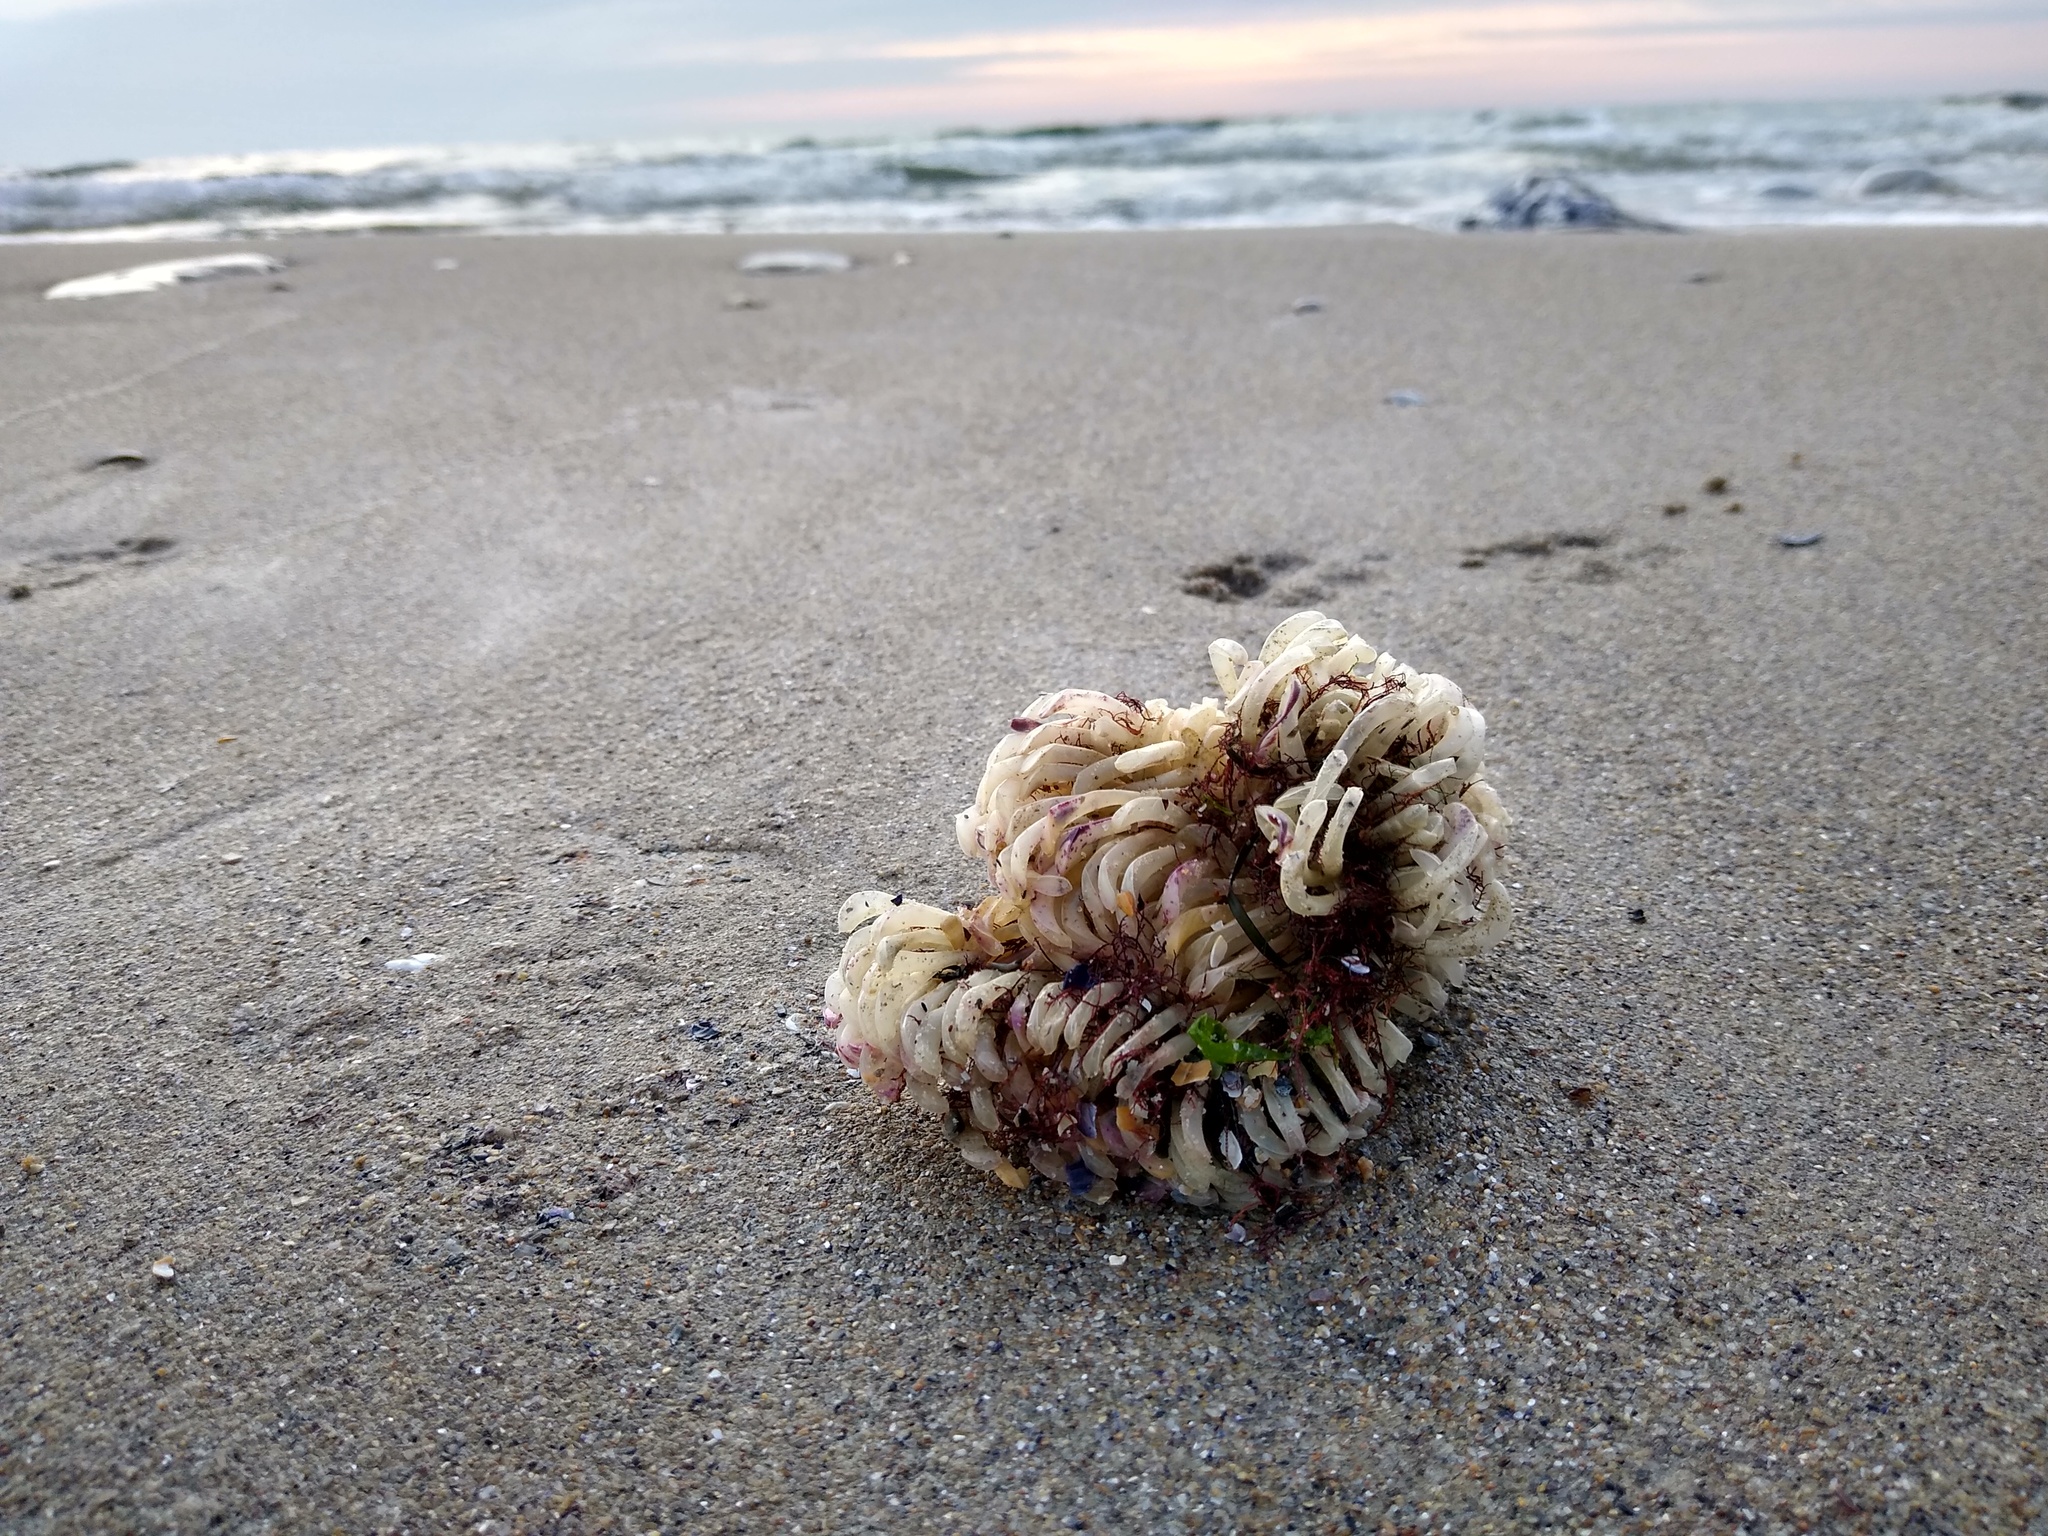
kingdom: Animalia
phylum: Mollusca
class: Gastropoda
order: Neogastropoda
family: Muricidae
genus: Rapana
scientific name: Rapana venosa
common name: Veined rapa whelk
